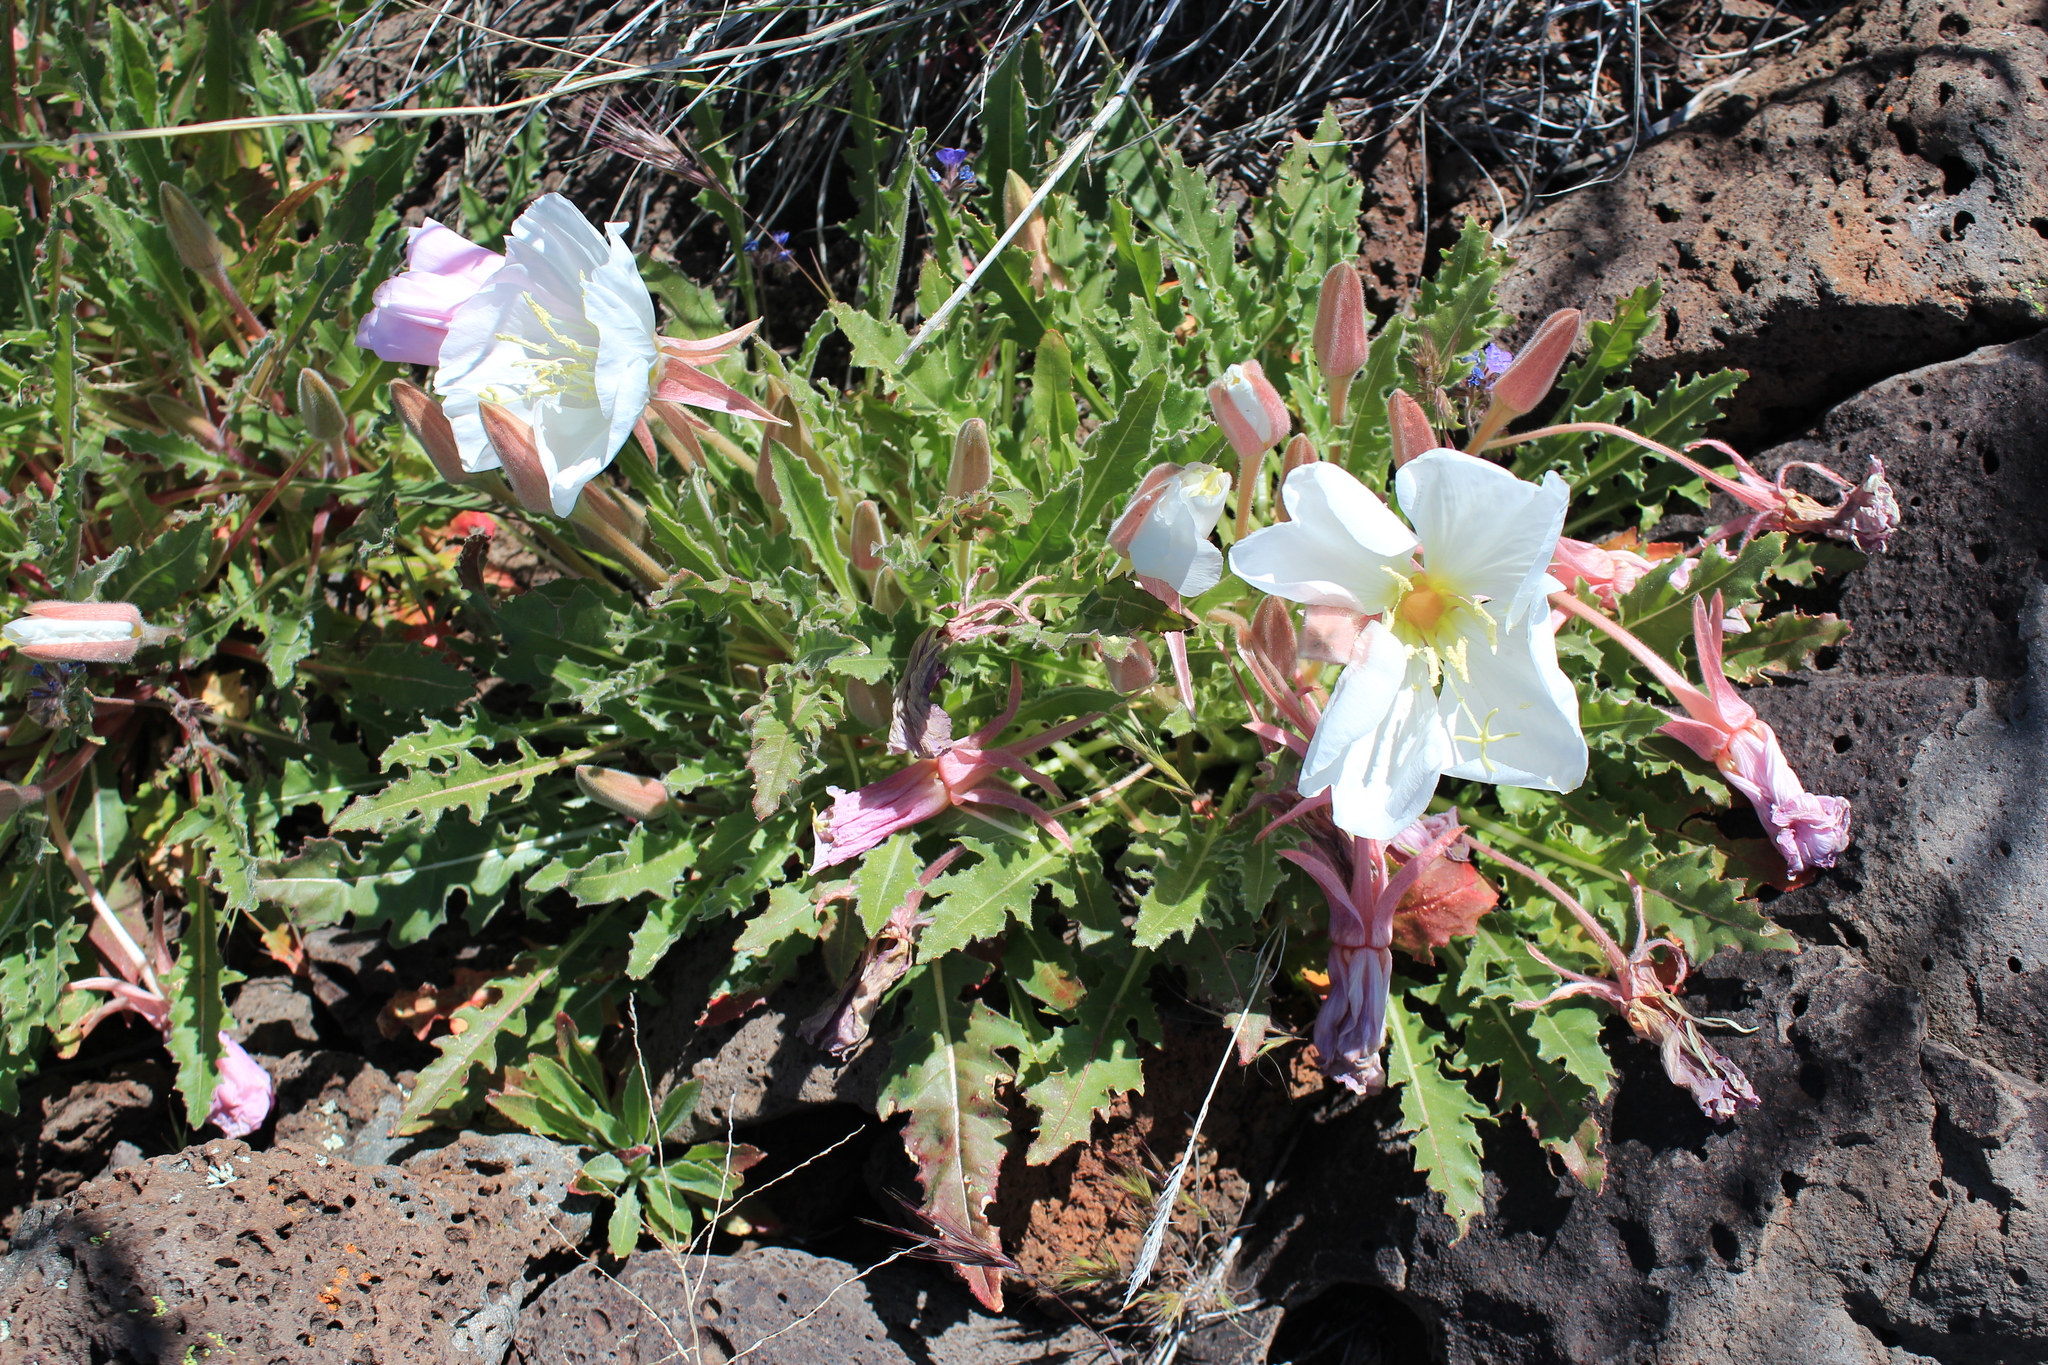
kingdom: Plantae
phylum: Tracheophyta
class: Magnoliopsida
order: Myrtales
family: Onagraceae
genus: Oenothera
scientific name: Oenothera cespitosa
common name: Tufted evening-primrose
